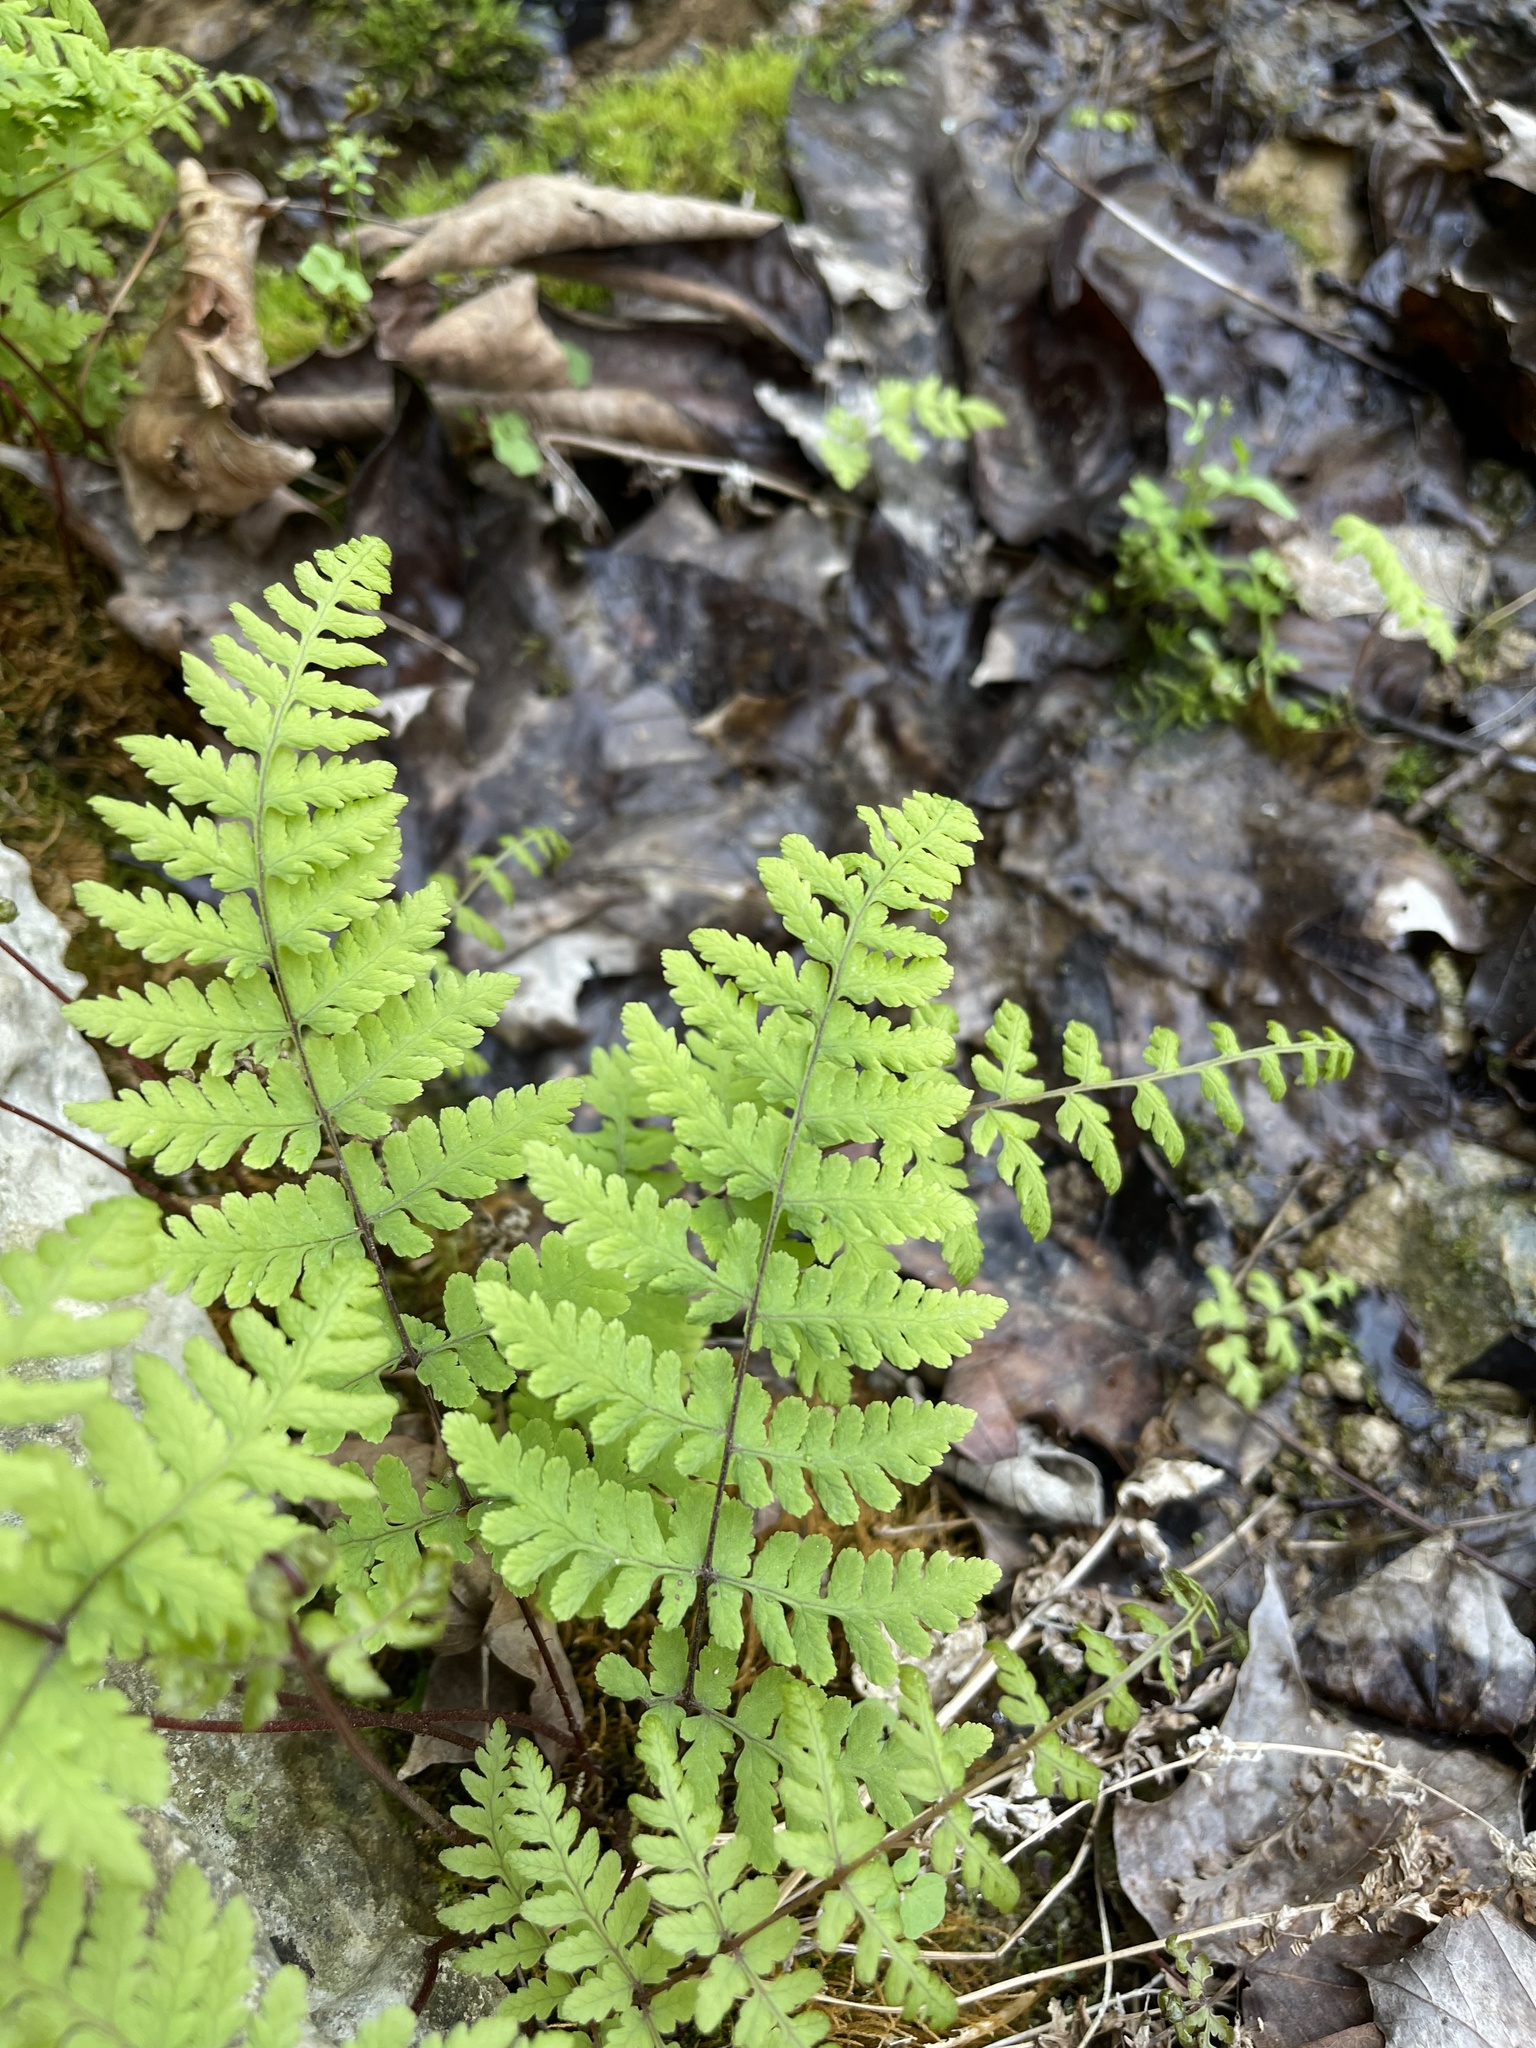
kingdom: Plantae
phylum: Tracheophyta
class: Polypodiopsida
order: Polypodiales
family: Cystopteridaceae
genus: Cystopteris
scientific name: Cystopteris bulbifera
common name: Bulblet bladder fern
